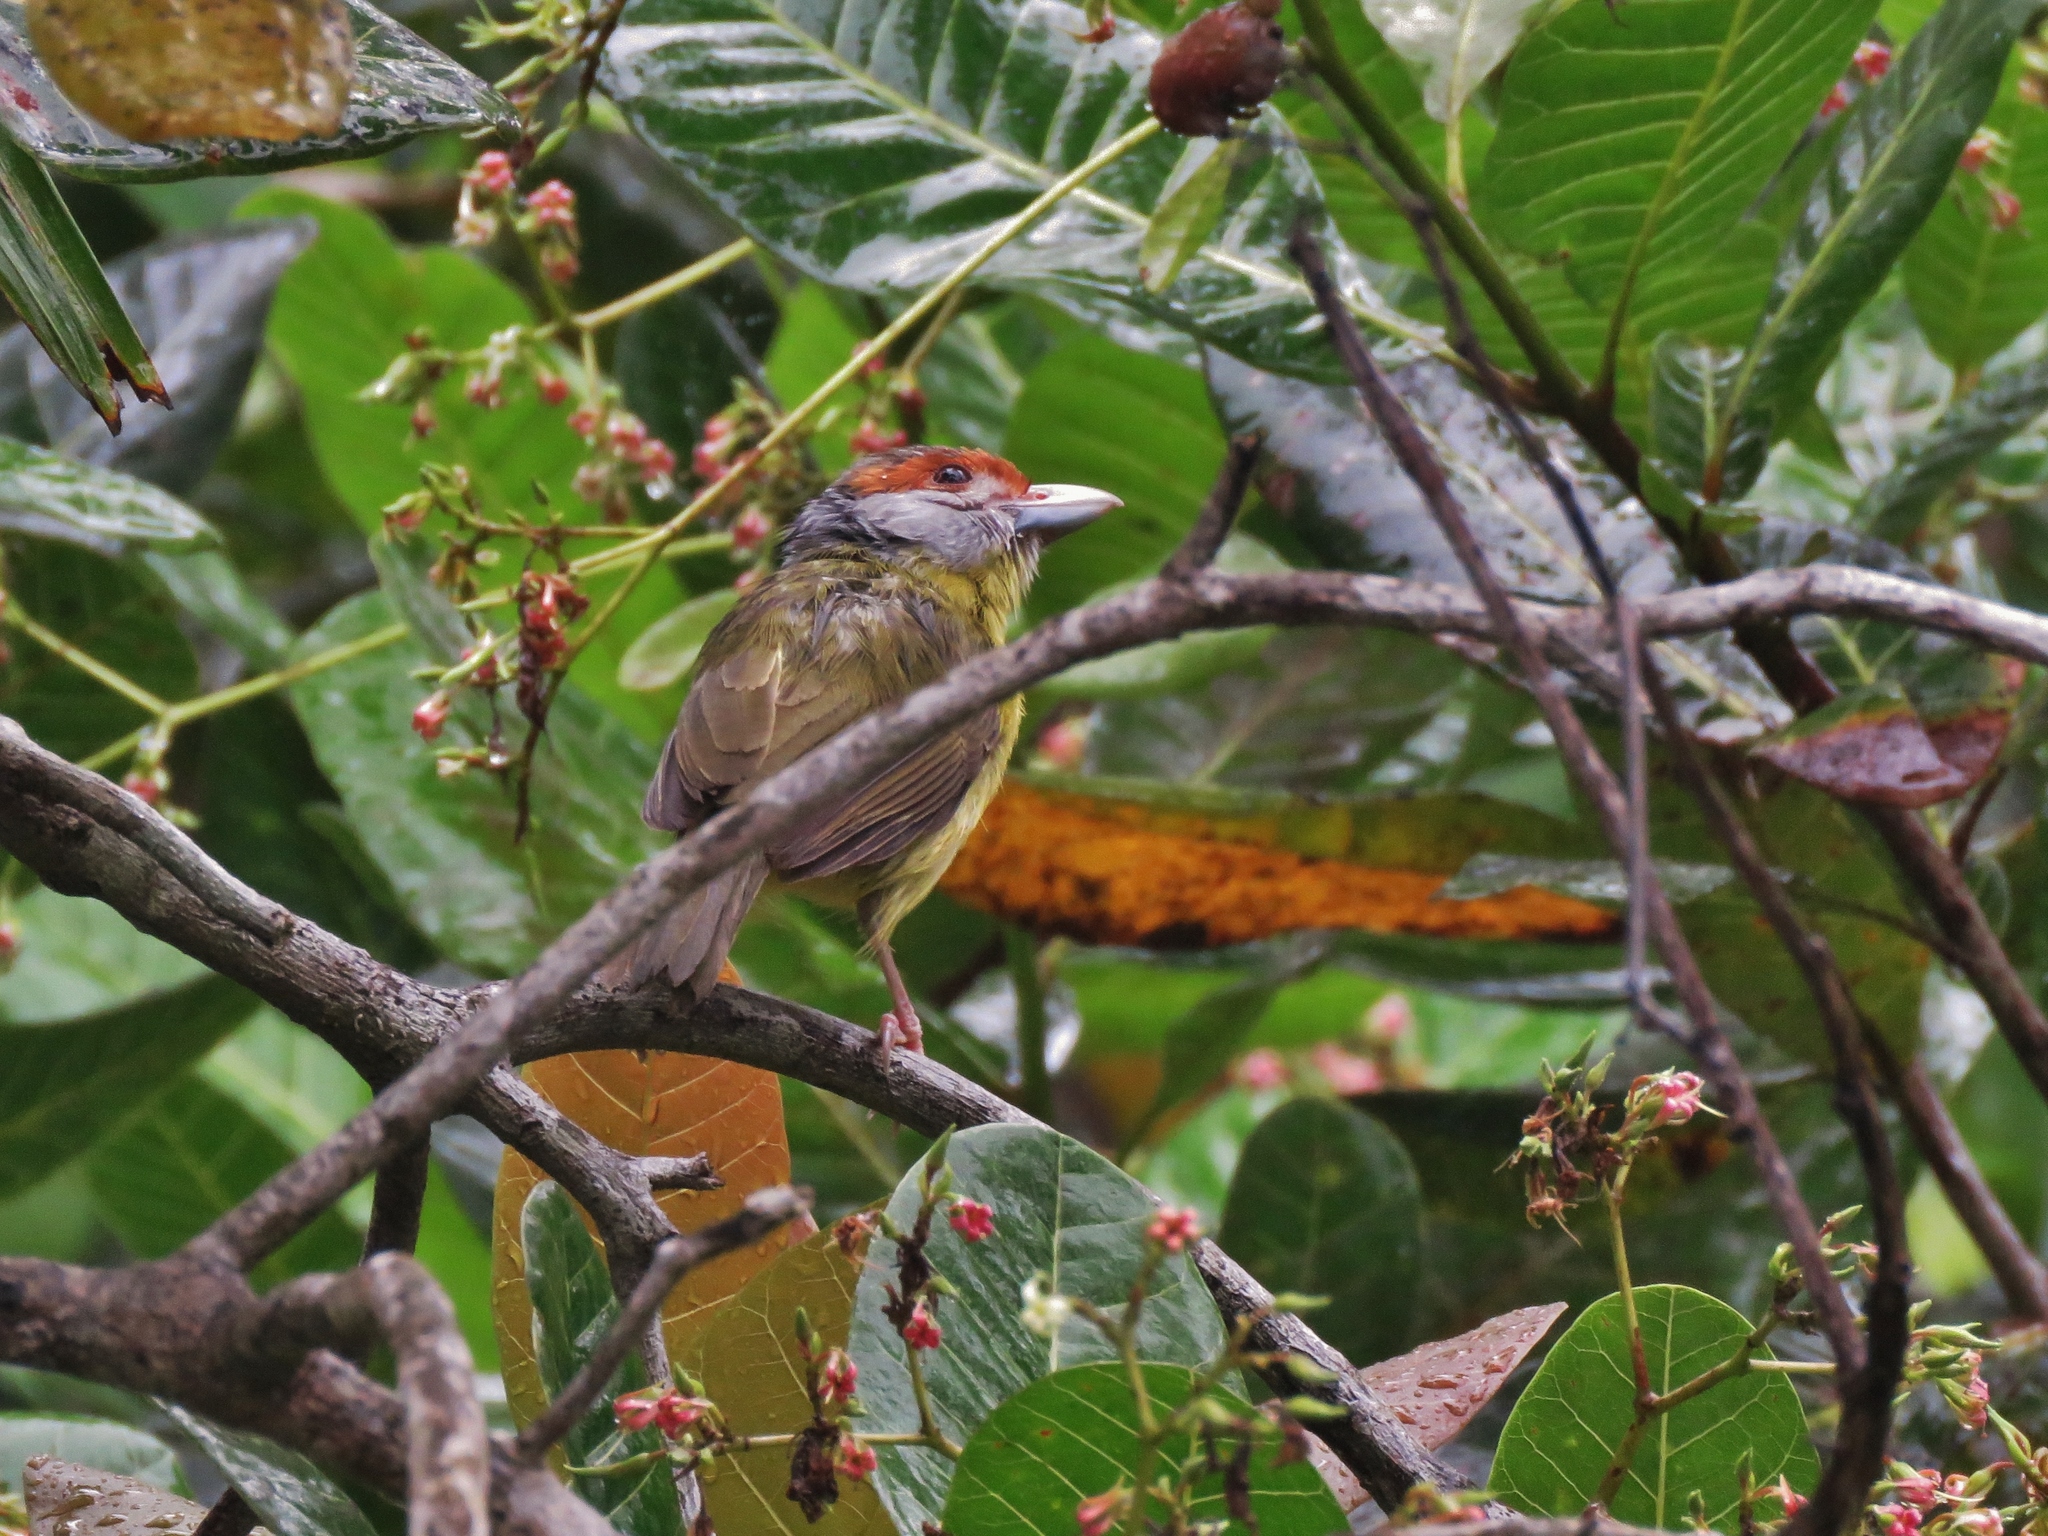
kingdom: Animalia
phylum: Chordata
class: Aves
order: Passeriformes
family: Vireonidae
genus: Cyclarhis
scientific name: Cyclarhis gujanensis
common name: Rufous-browed peppershrike
